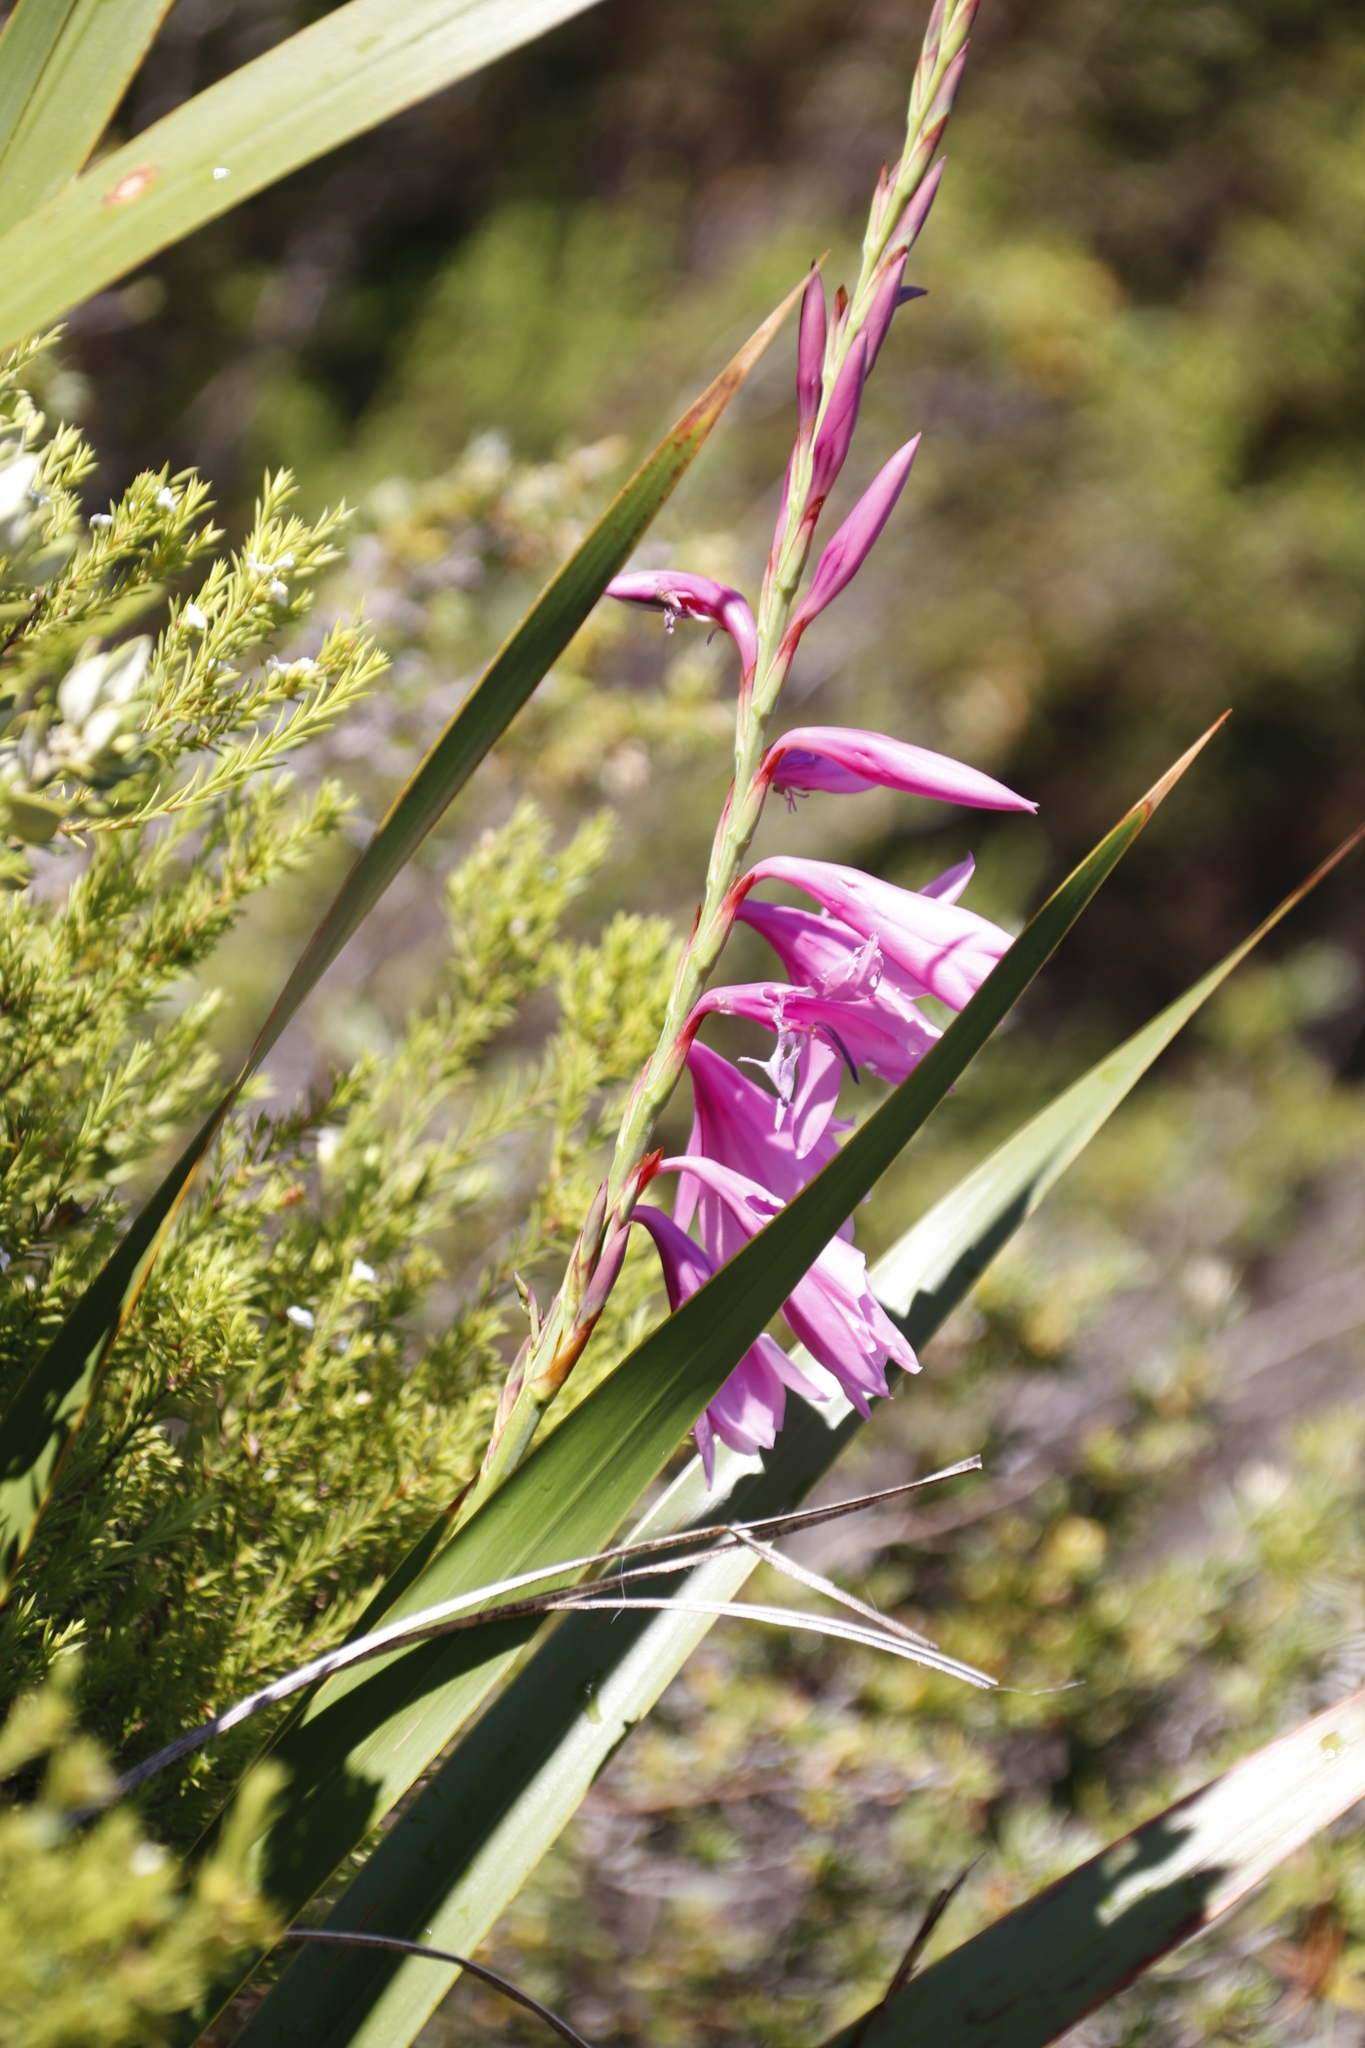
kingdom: Plantae
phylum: Tracheophyta
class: Liliopsida
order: Asparagales
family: Iridaceae
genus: Watsonia
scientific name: Watsonia borbonica
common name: Bugle-lily
